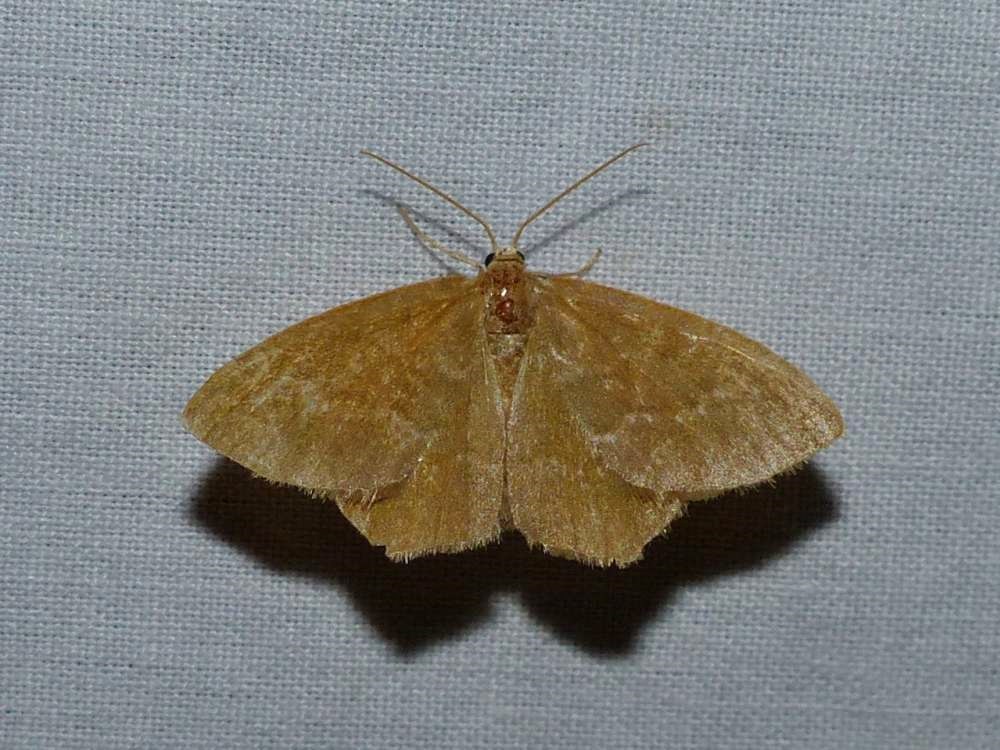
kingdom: Animalia
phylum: Arthropoda
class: Insecta
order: Lepidoptera
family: Geometridae
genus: Thalera
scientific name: Thalera pistasciaria
